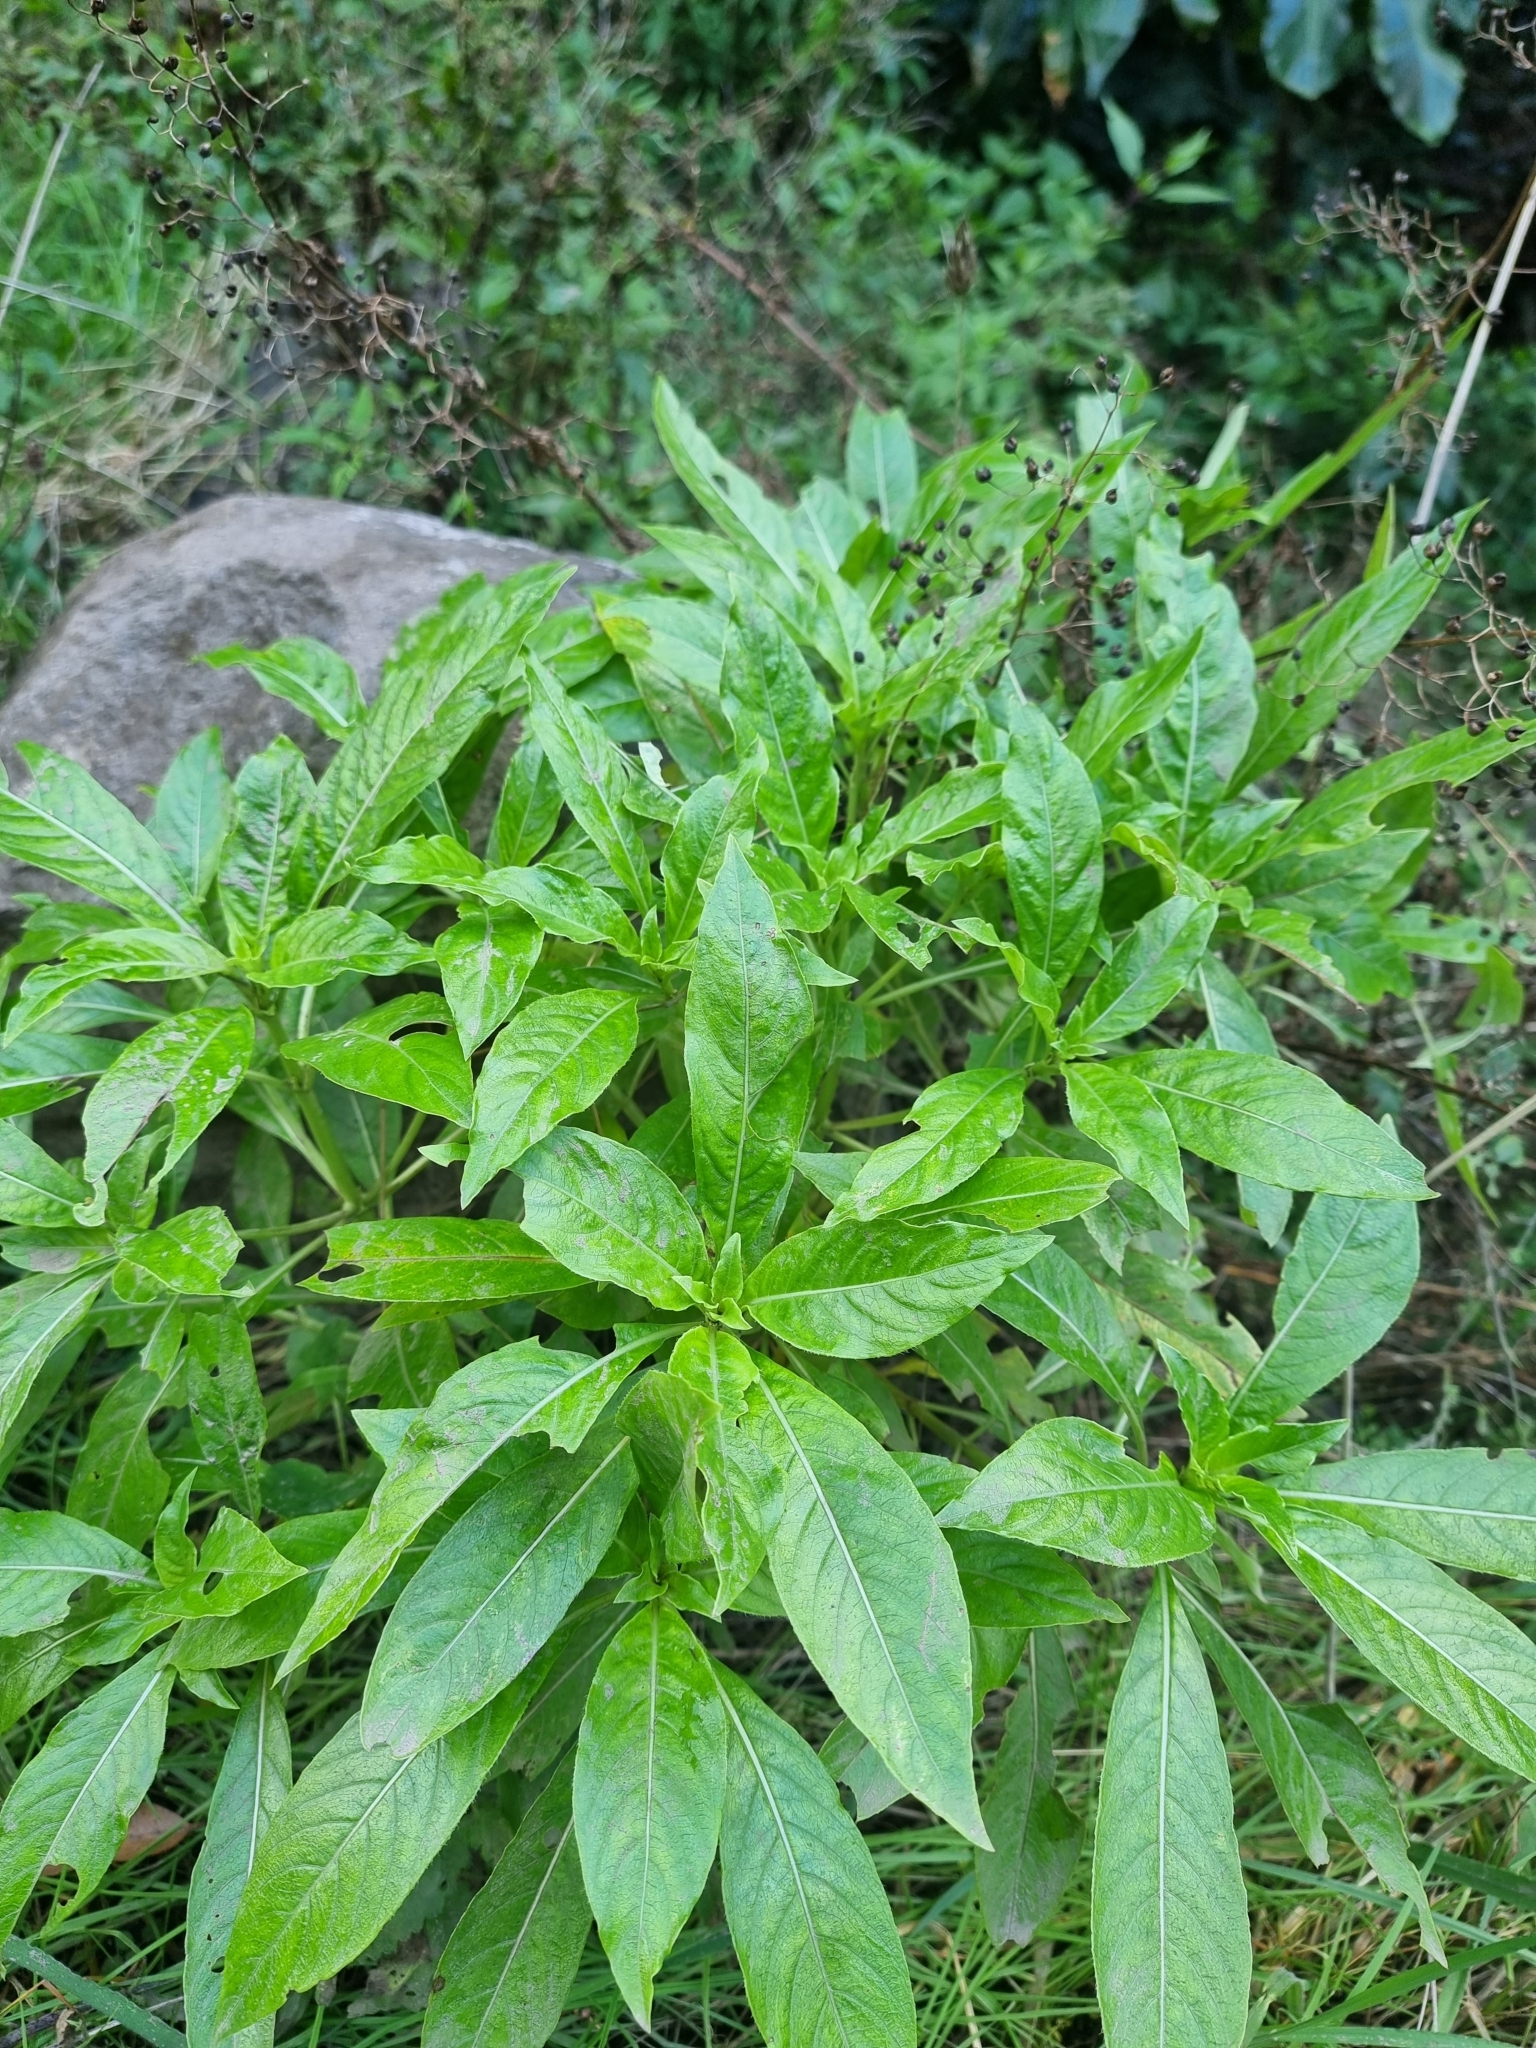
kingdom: Plantae
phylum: Tracheophyta
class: Magnoliopsida
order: Gentianales
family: Rubiaceae
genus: Phyllis
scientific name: Phyllis nobla
